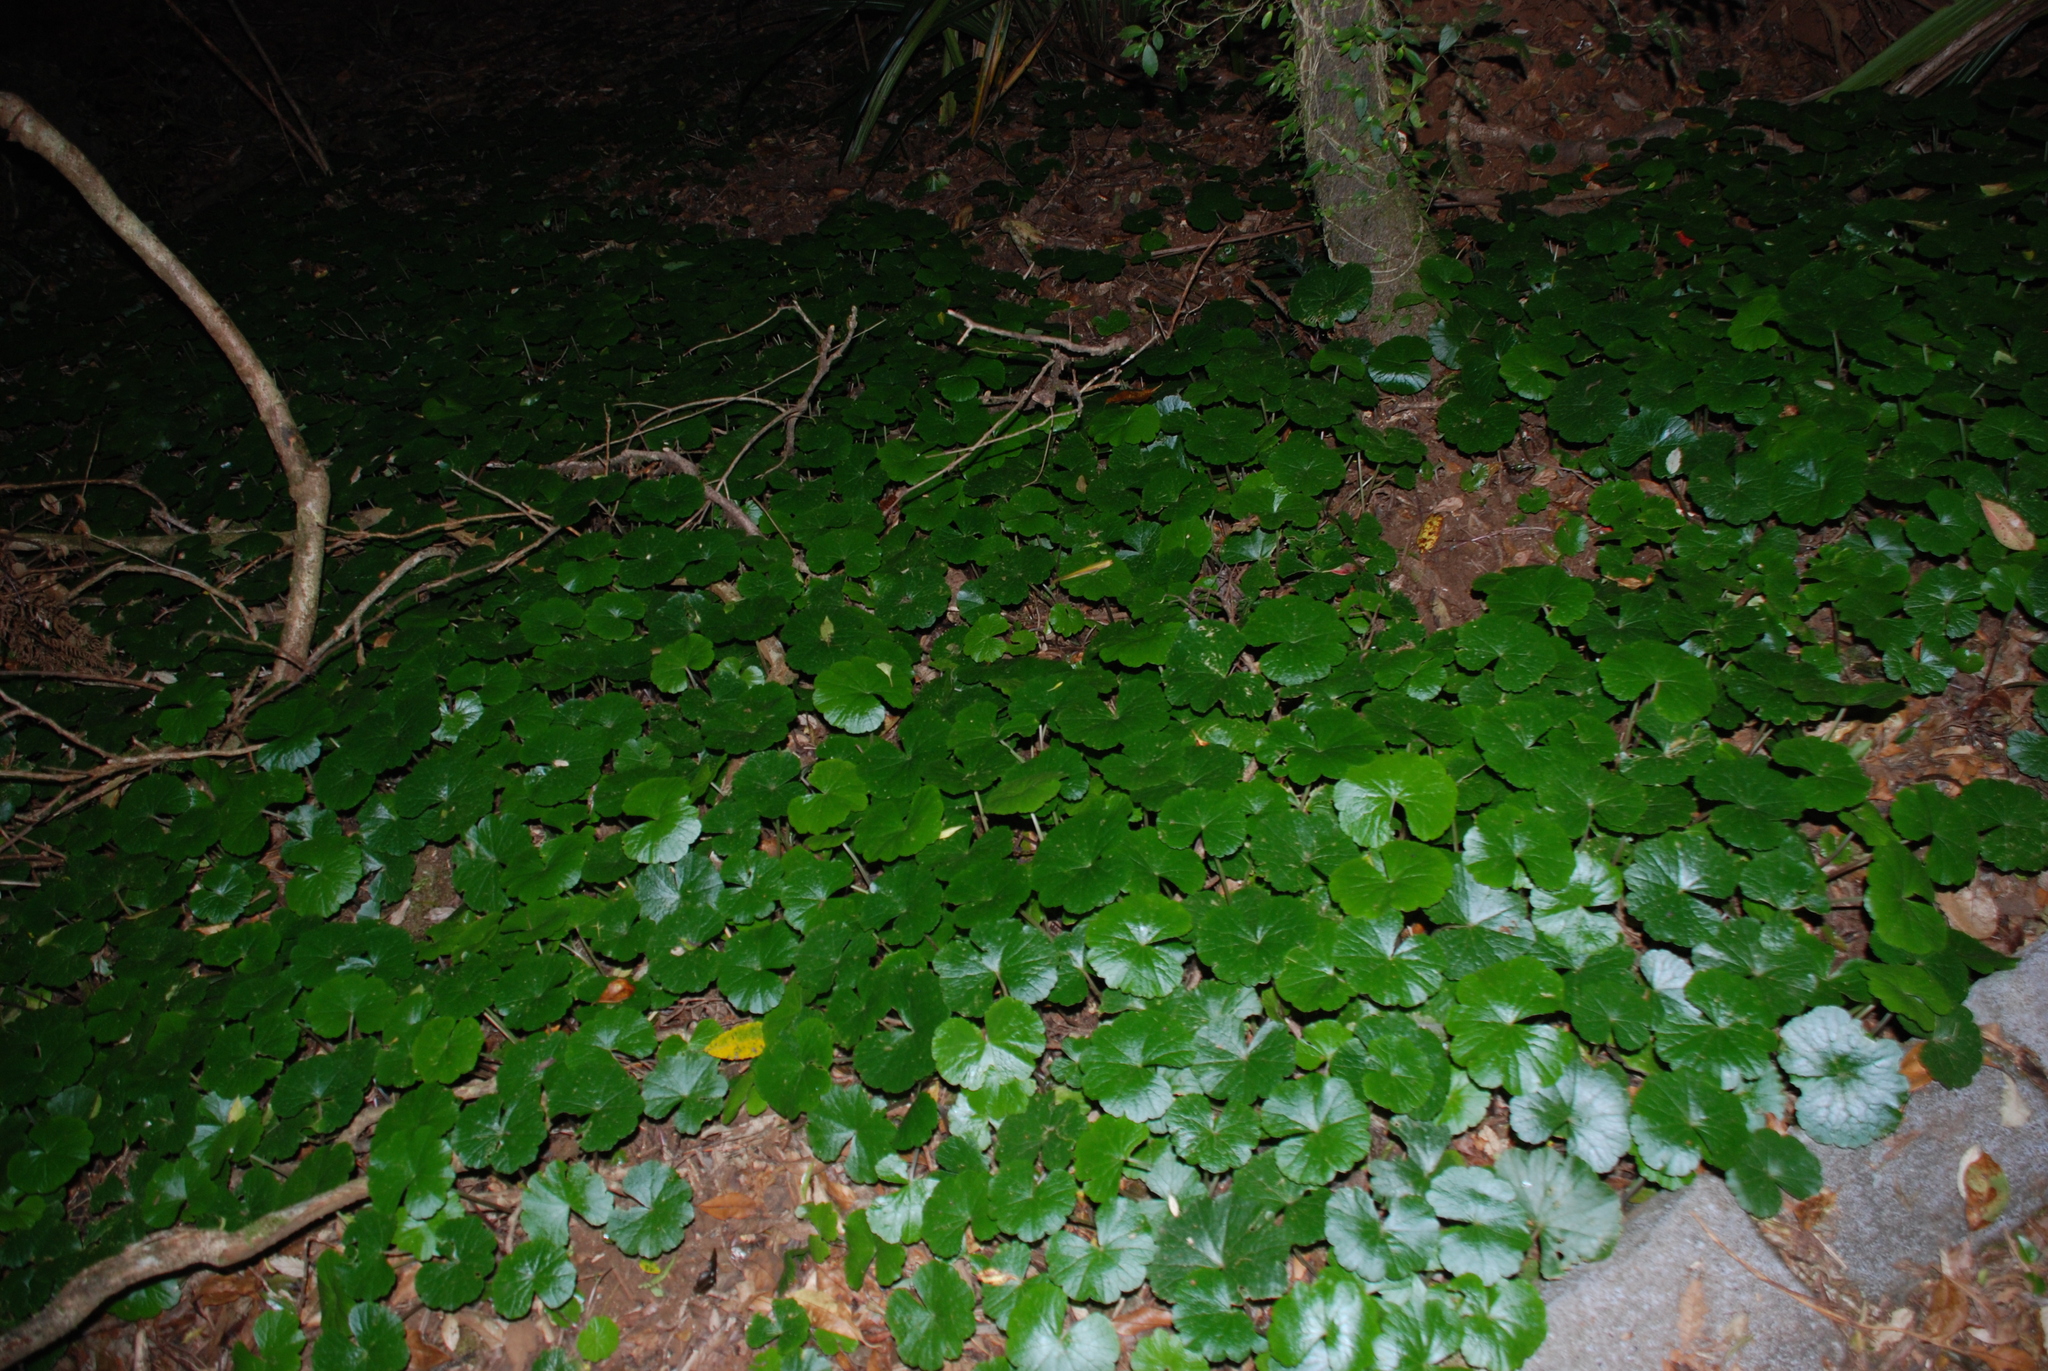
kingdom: Plantae
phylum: Tracheophyta
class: Magnoliopsida
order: Apiales
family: Araliaceae
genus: Hydrocotyle
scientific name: Hydrocotyle pedicellosa
